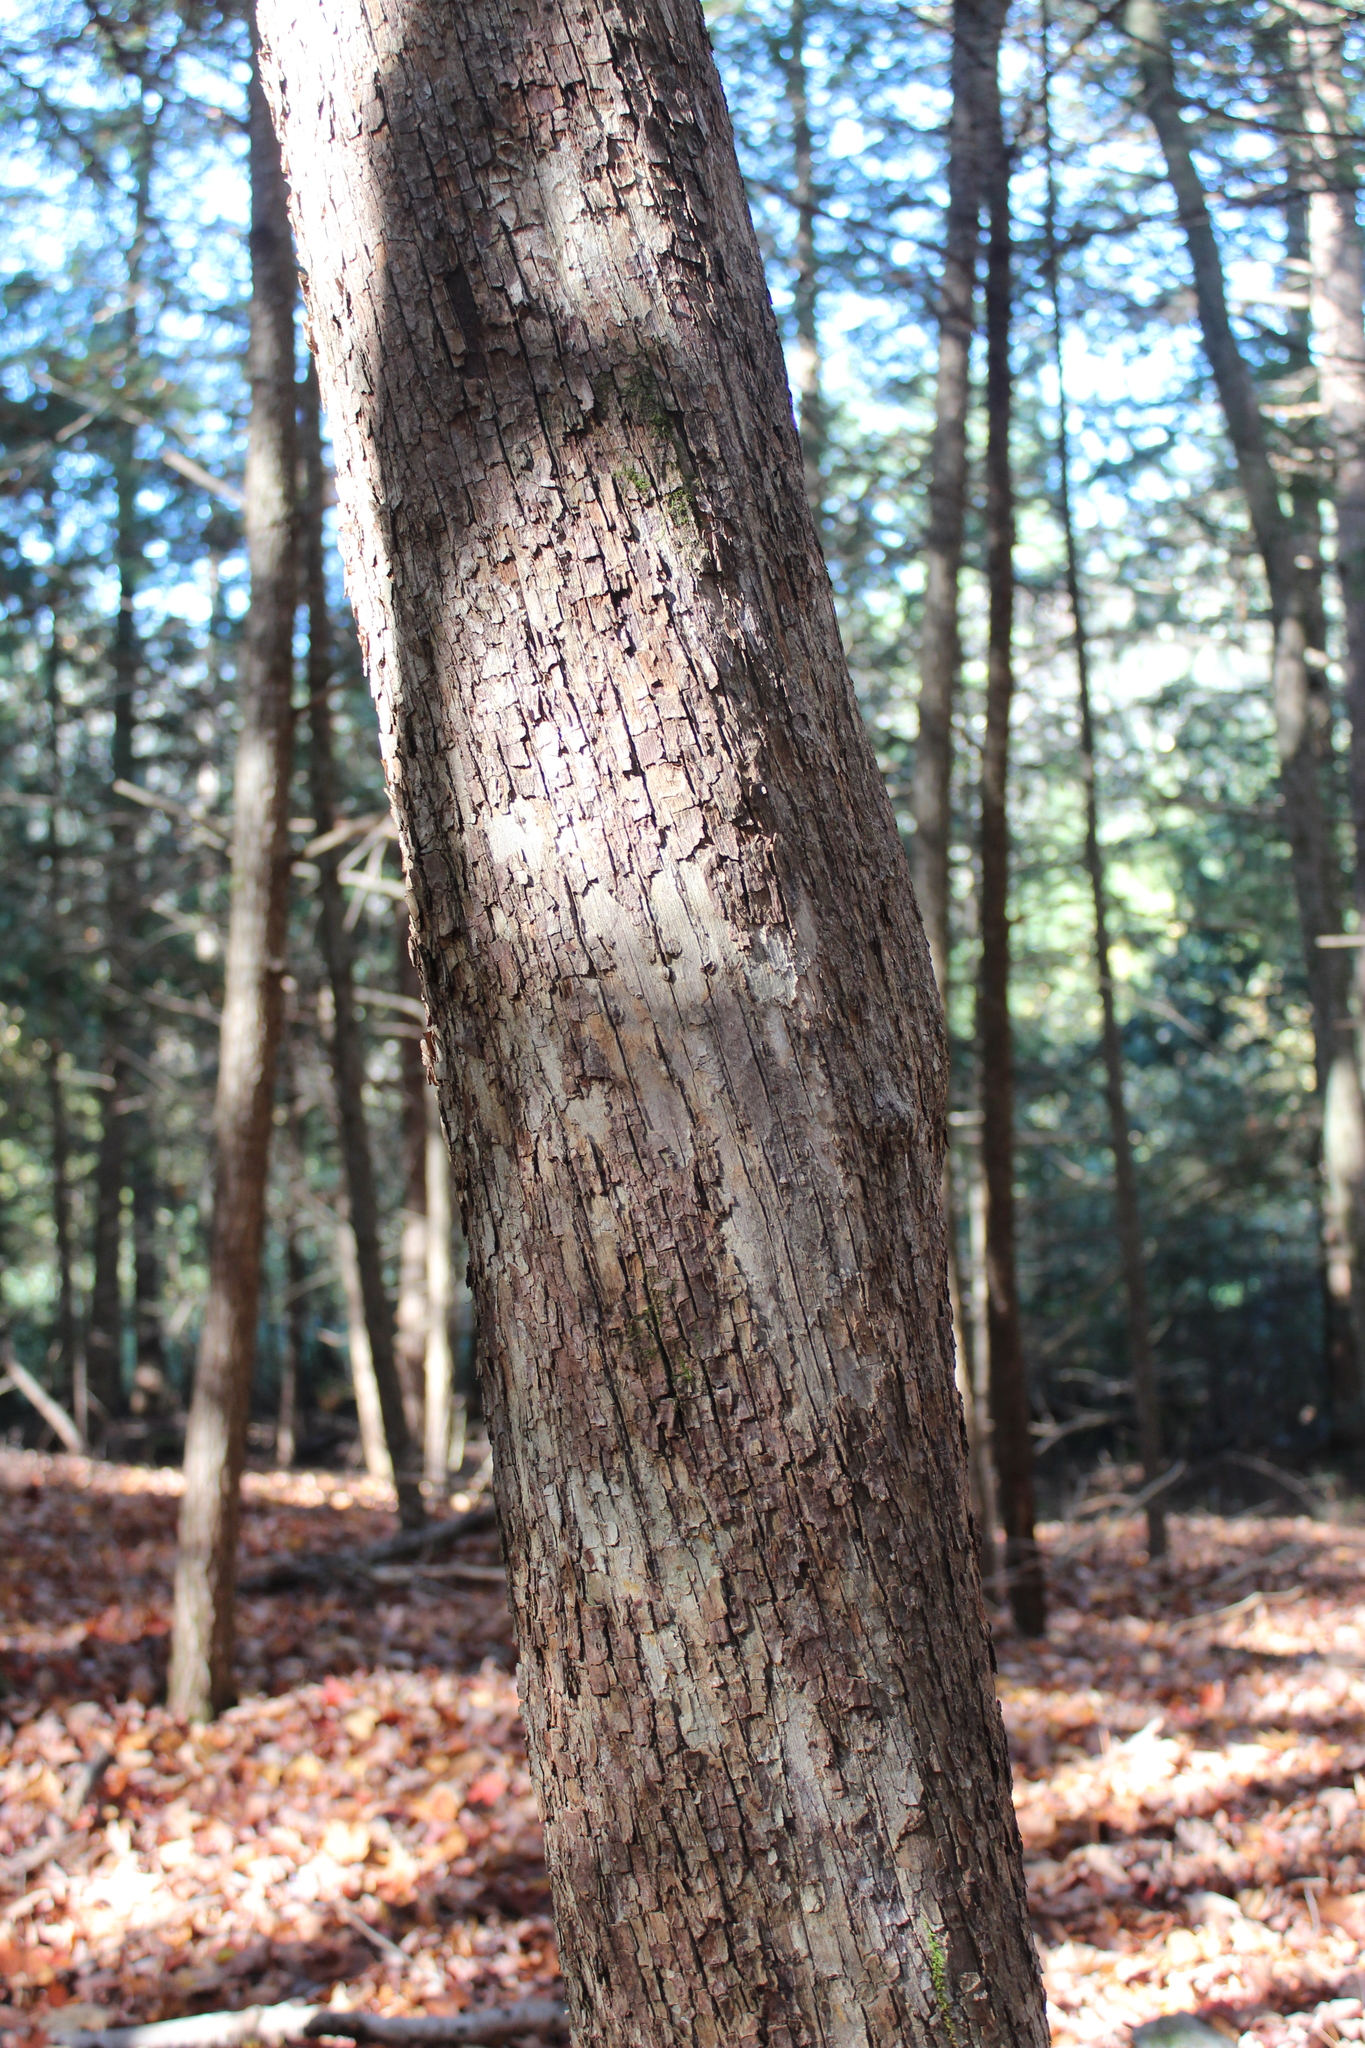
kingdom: Plantae
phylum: Tracheophyta
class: Magnoliopsida
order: Fagales
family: Betulaceae
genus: Ostrya
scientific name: Ostrya virginiana
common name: Ironwood
